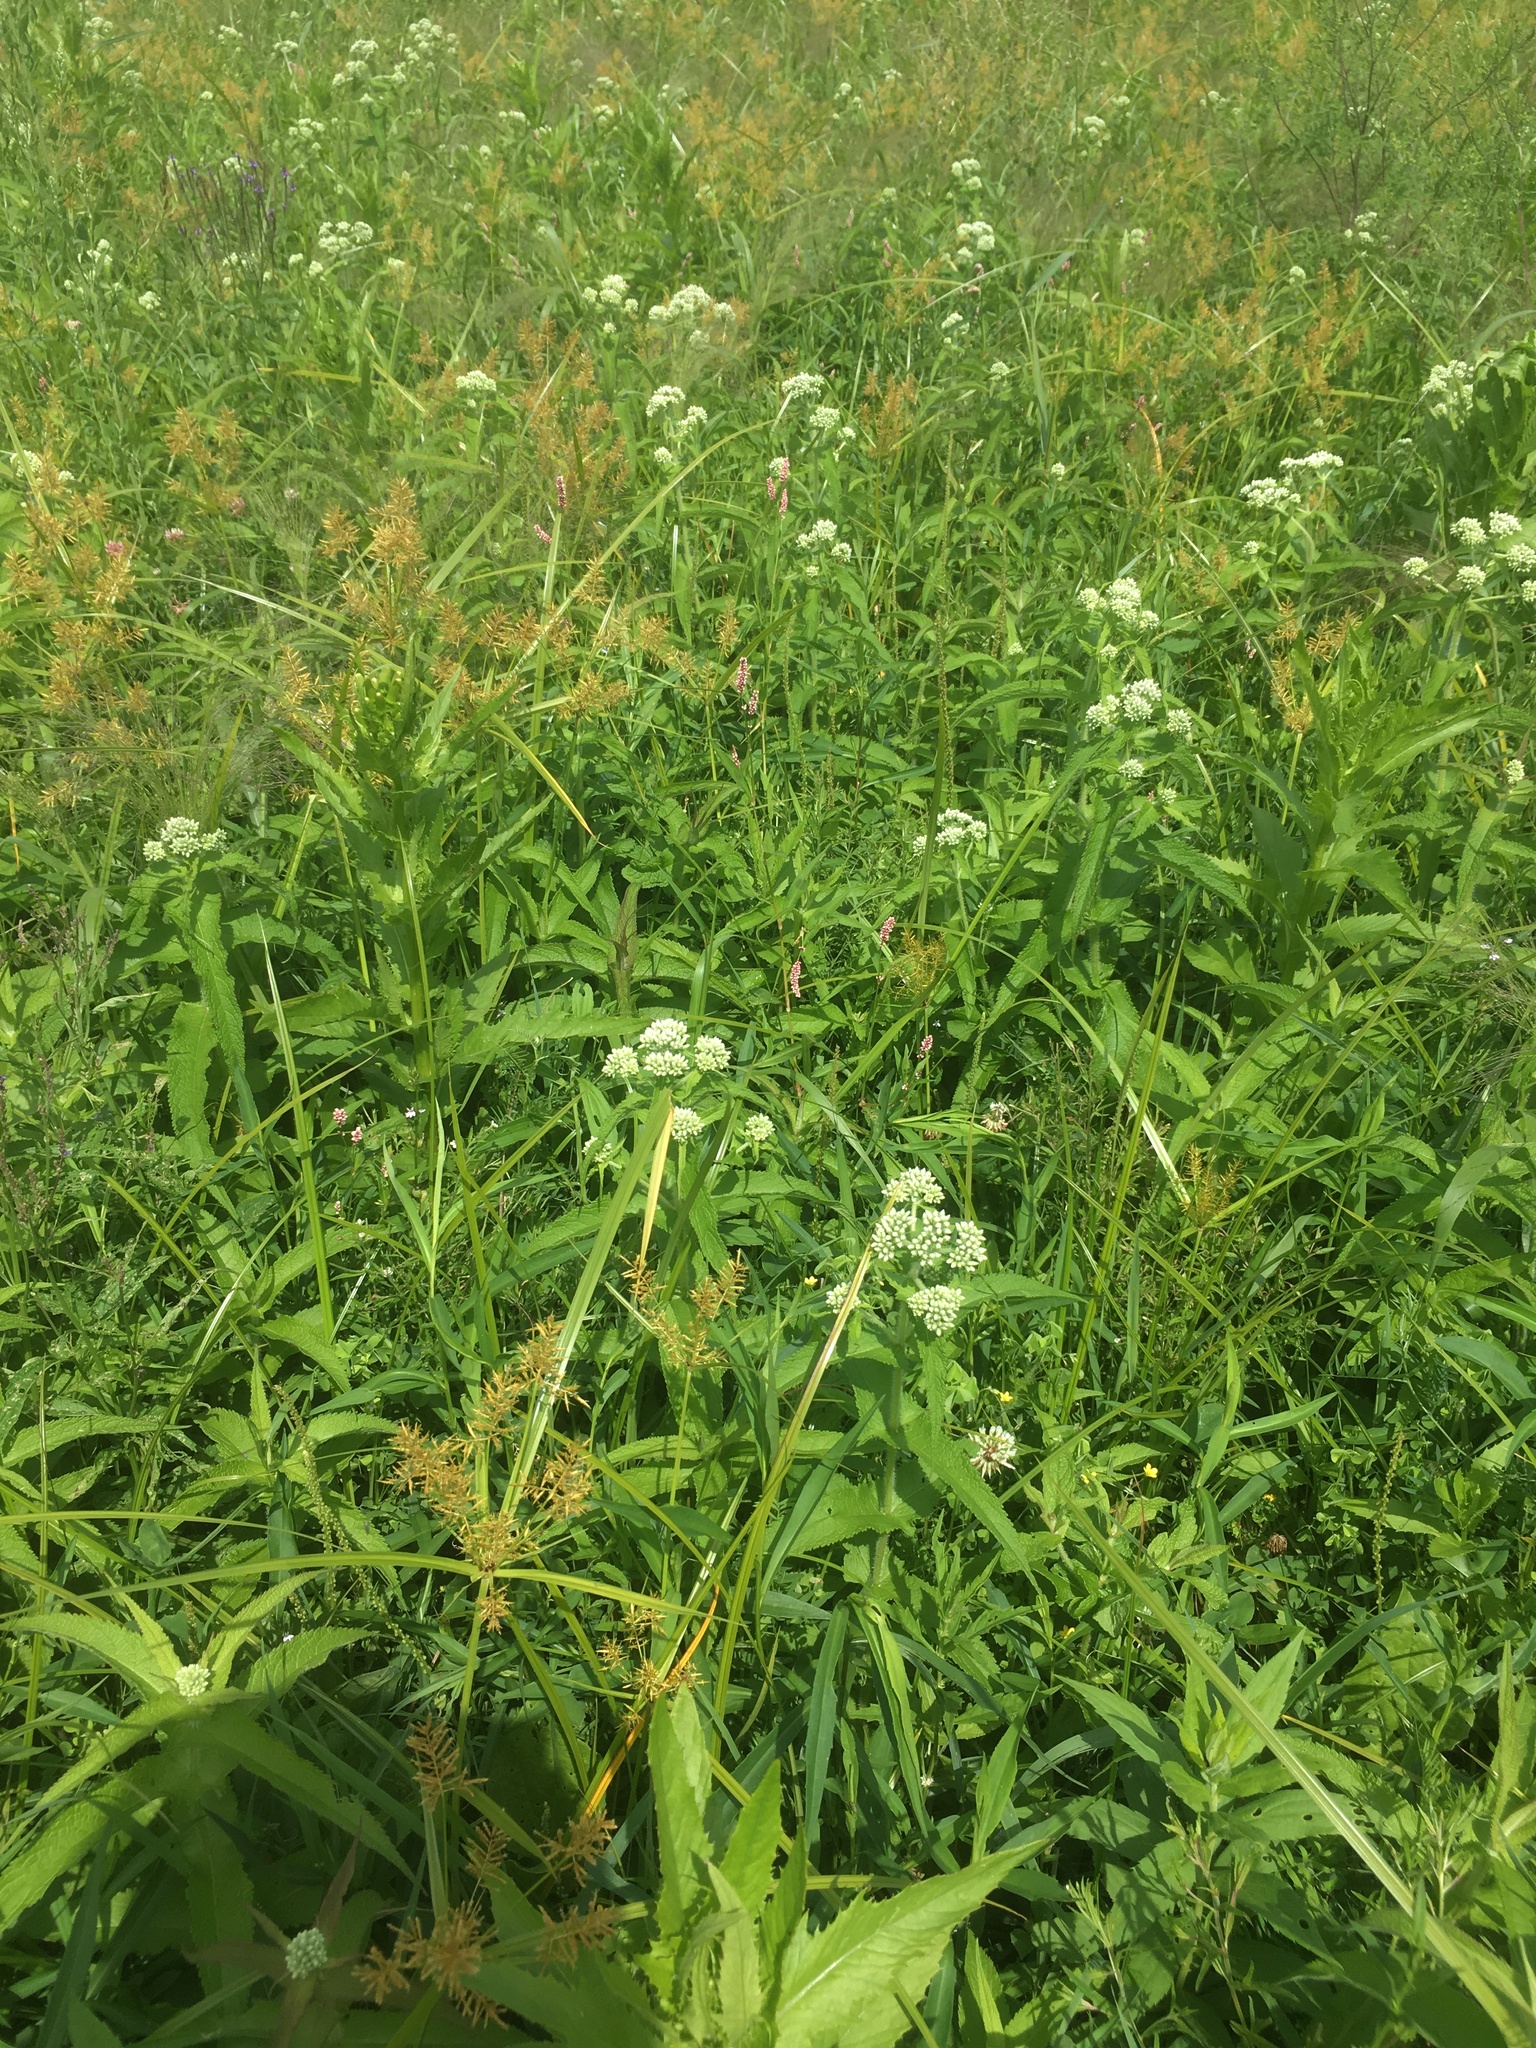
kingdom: Plantae
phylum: Tracheophyta
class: Magnoliopsida
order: Asterales
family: Asteraceae
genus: Eupatorium
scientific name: Eupatorium perfoliatum
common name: Boneset
